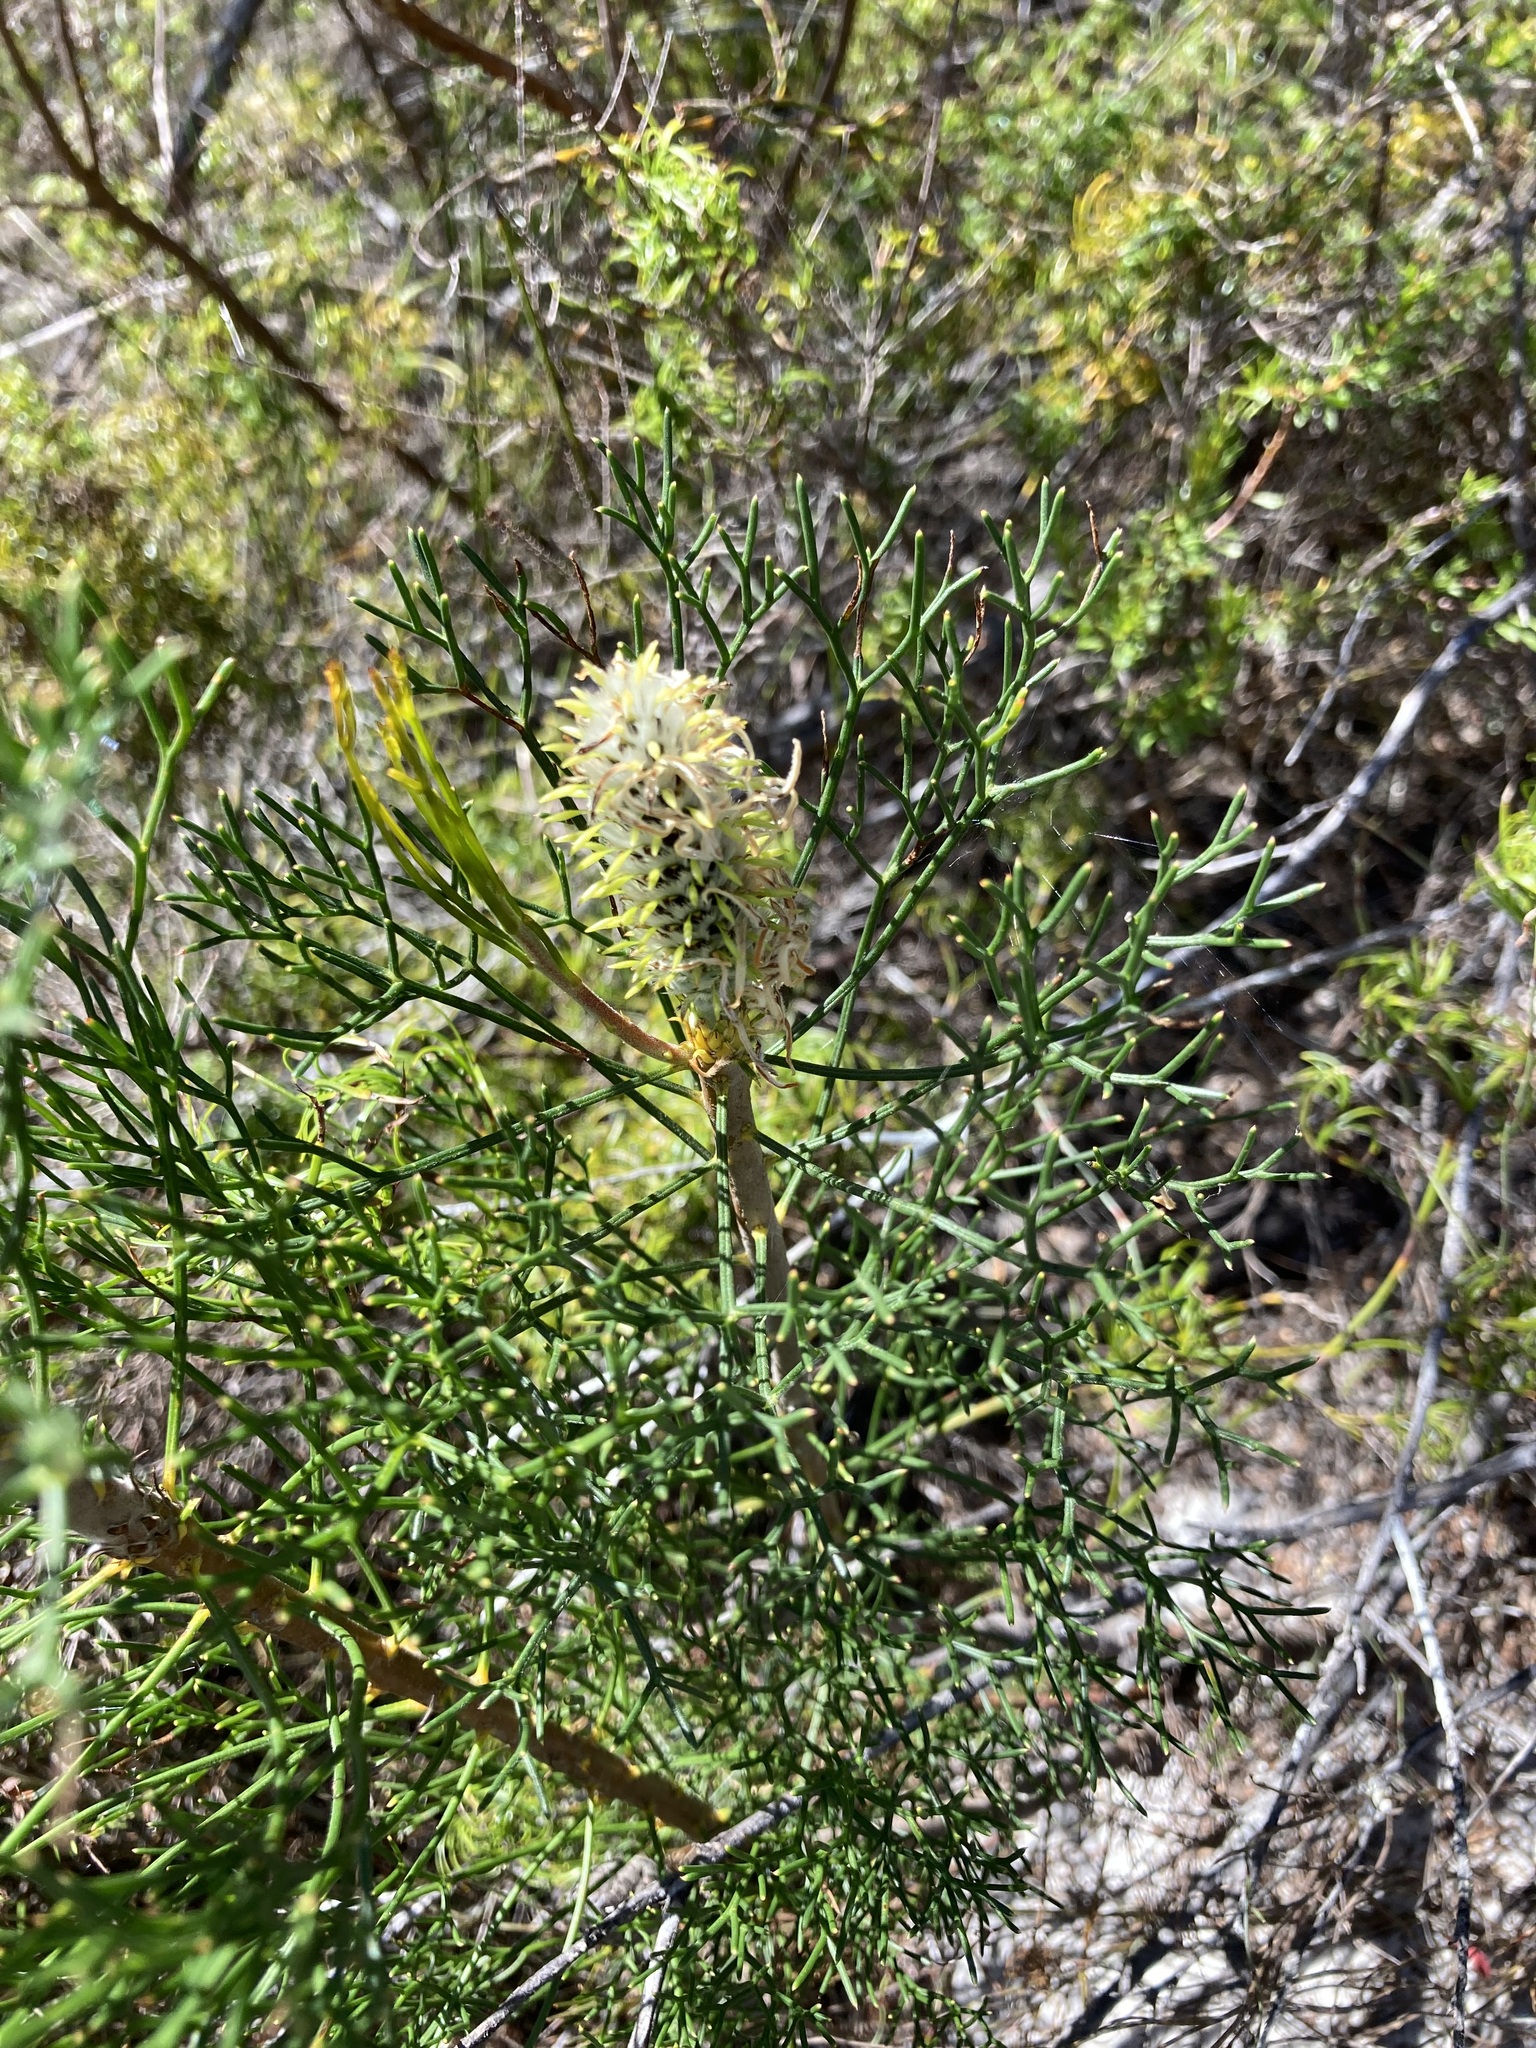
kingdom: Plantae
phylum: Tracheophyta
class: Magnoliopsida
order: Proteales
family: Proteaceae
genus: Petrophile
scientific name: Petrophile pulchella
